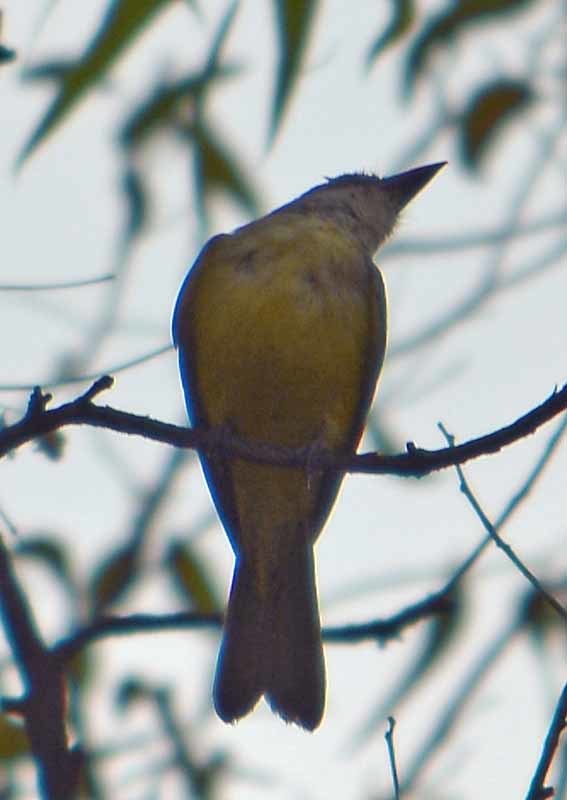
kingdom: Animalia
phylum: Chordata
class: Aves
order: Passeriformes
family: Tyrannidae
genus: Tyrannus
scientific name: Tyrannus melancholicus
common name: Tropical kingbird
